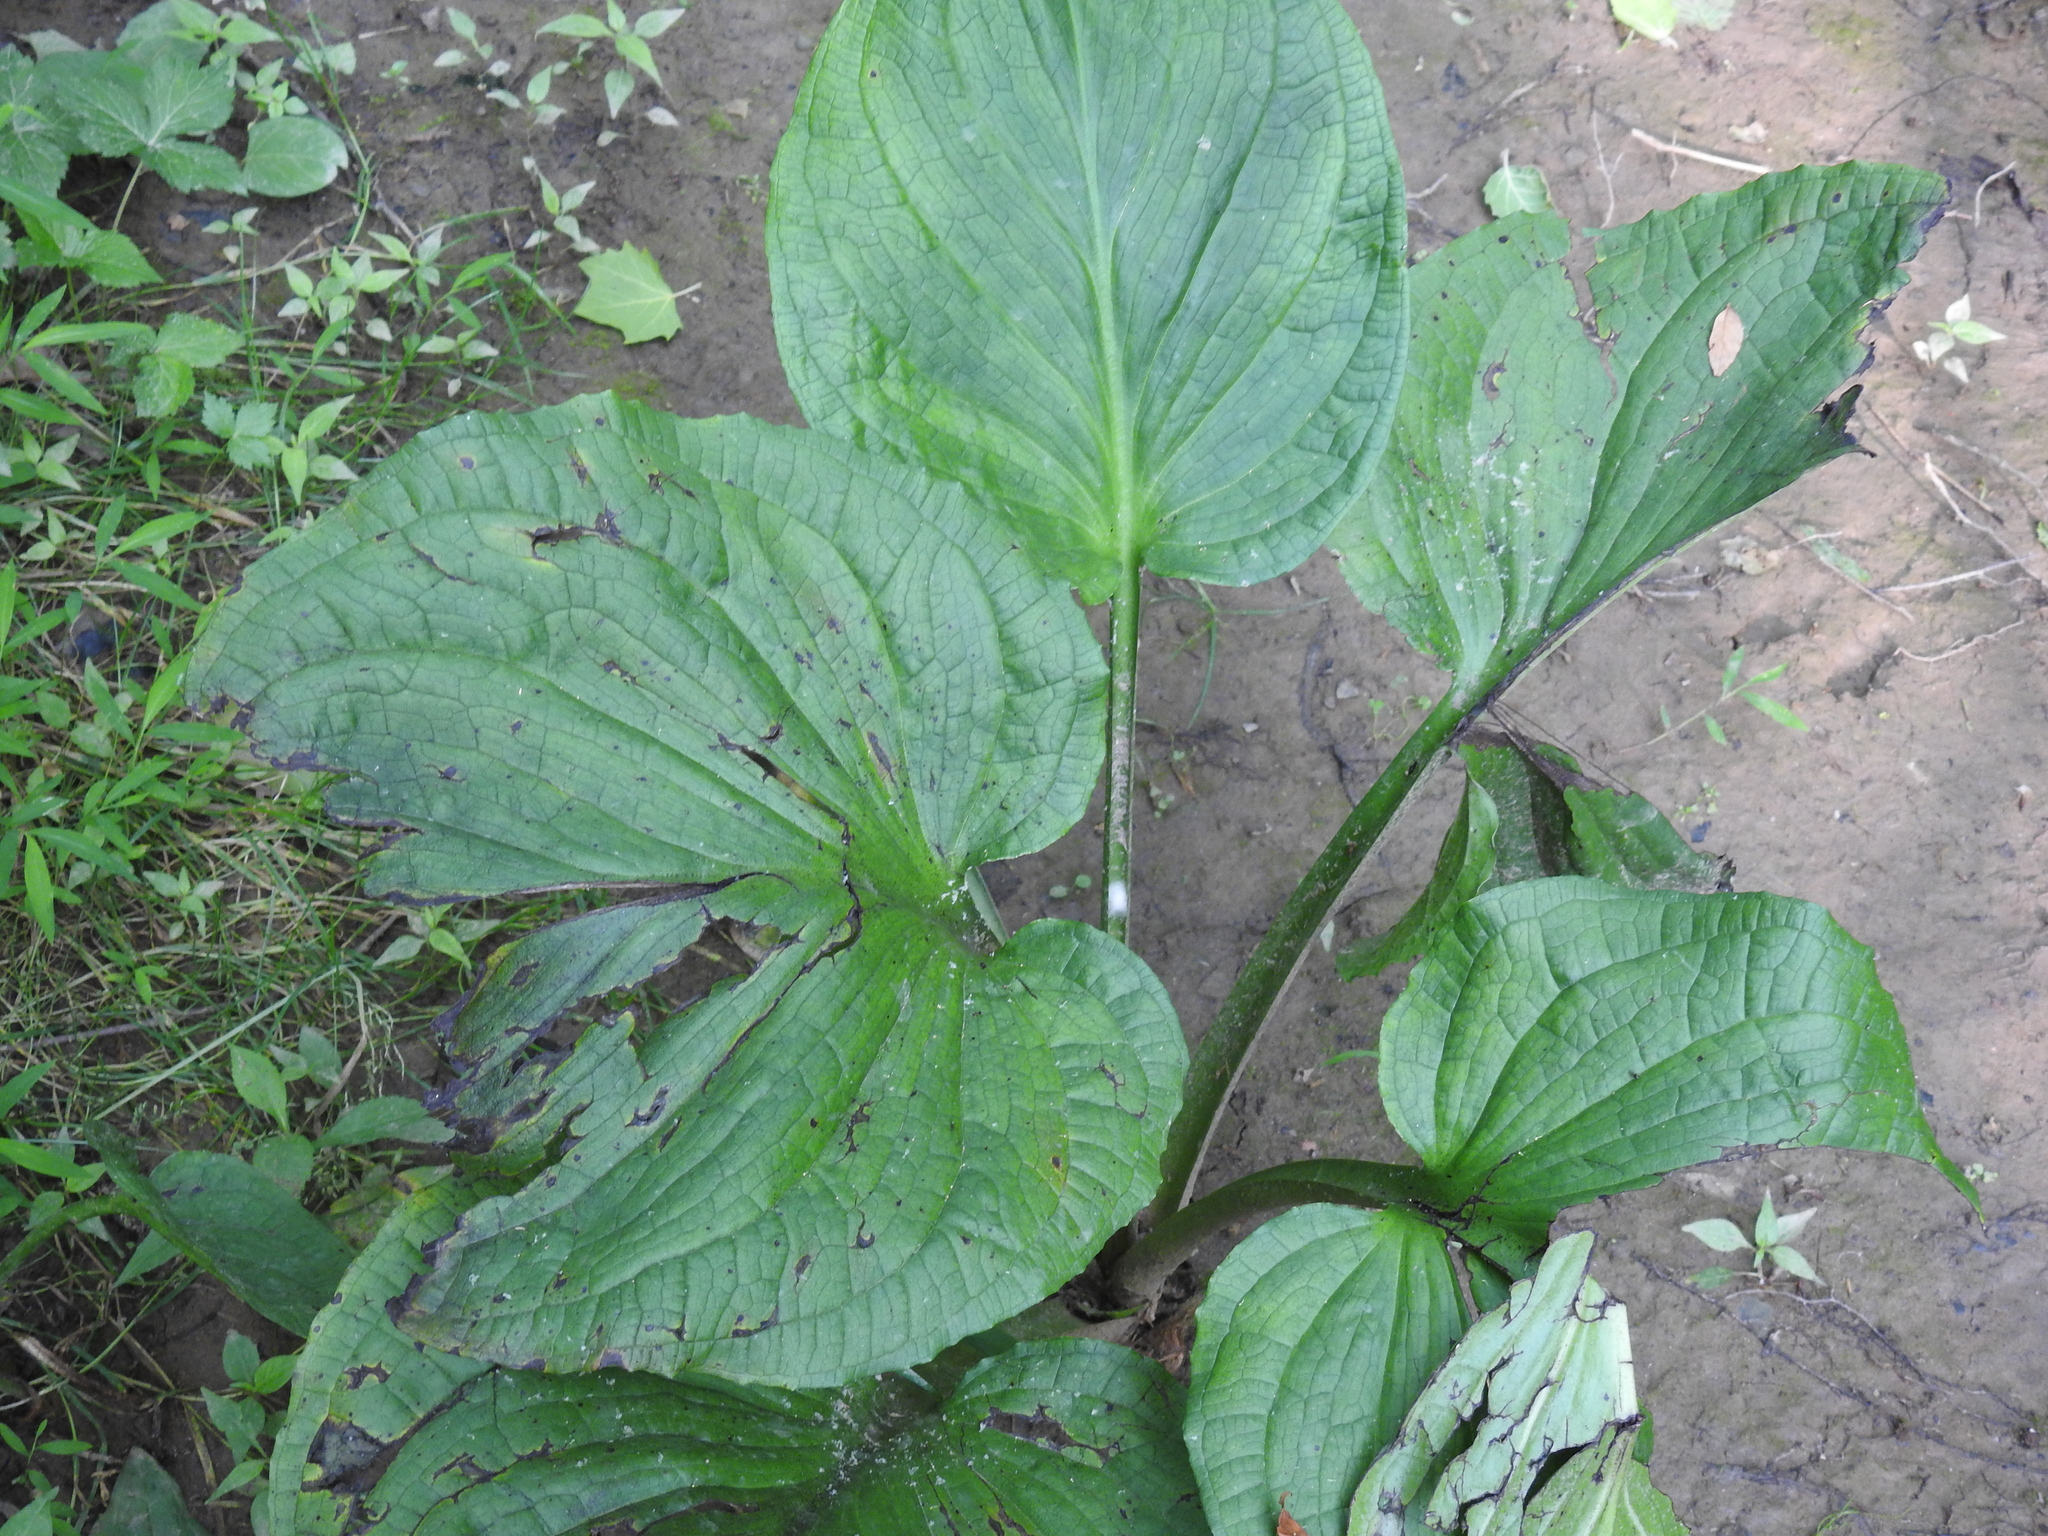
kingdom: Plantae
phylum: Tracheophyta
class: Liliopsida
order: Alismatales
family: Araceae
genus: Symplocarpus
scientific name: Symplocarpus foetidus
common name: Eastern skunk cabbage
